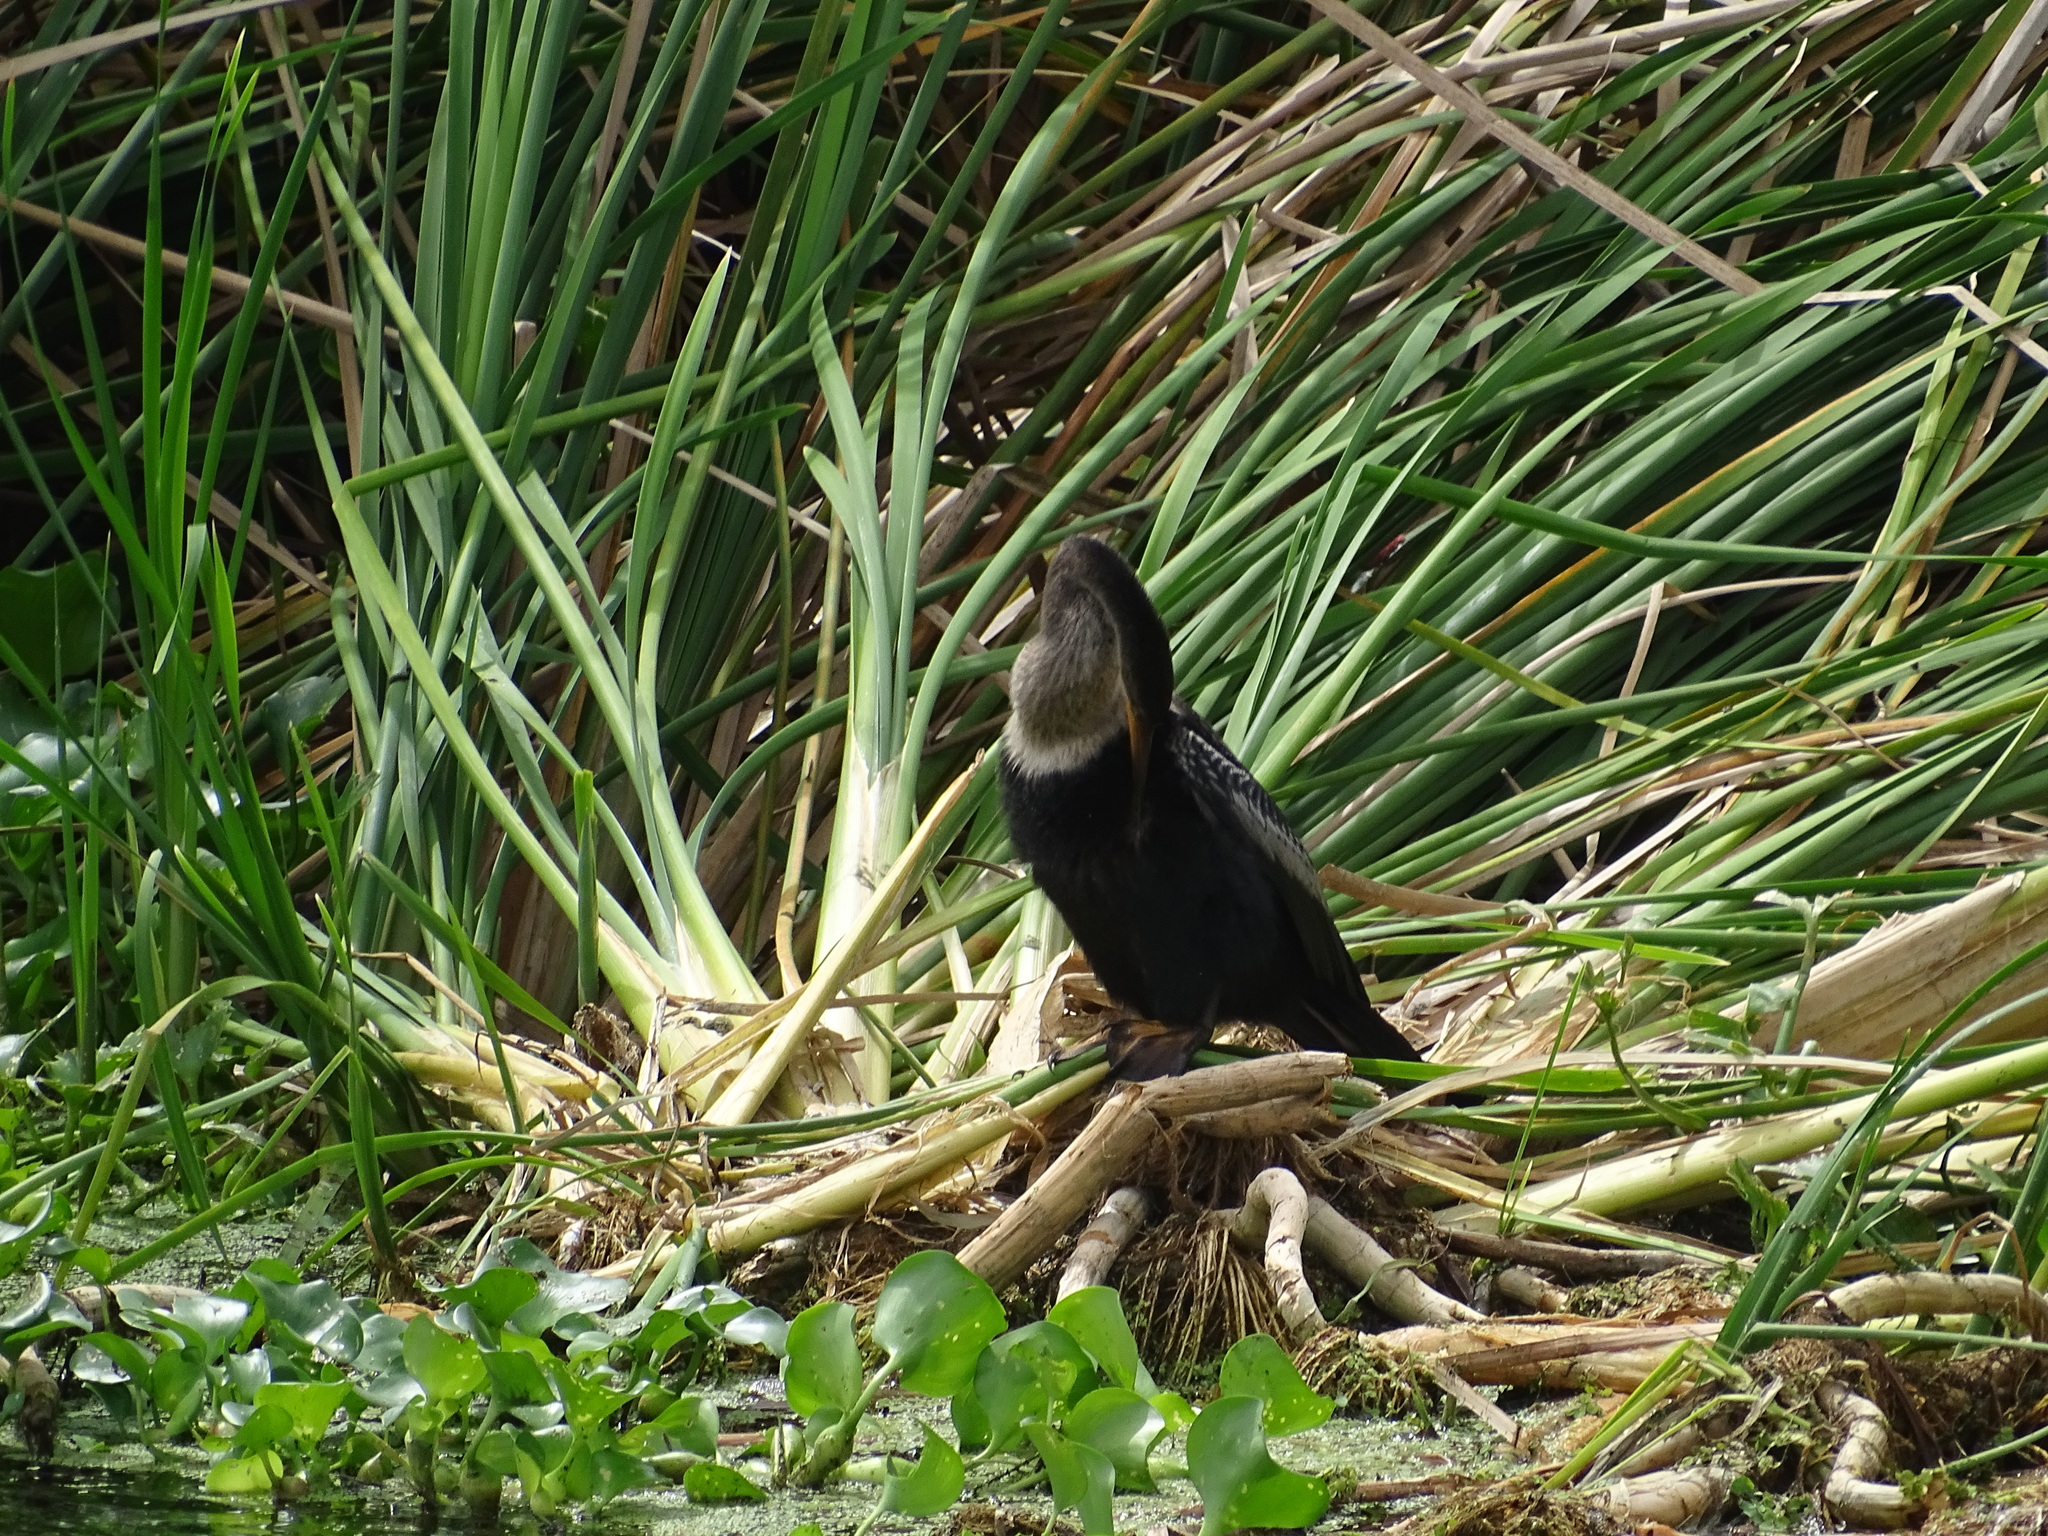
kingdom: Animalia
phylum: Chordata
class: Aves
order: Suliformes
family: Anhingidae
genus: Anhinga
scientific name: Anhinga anhinga
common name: Anhinga
